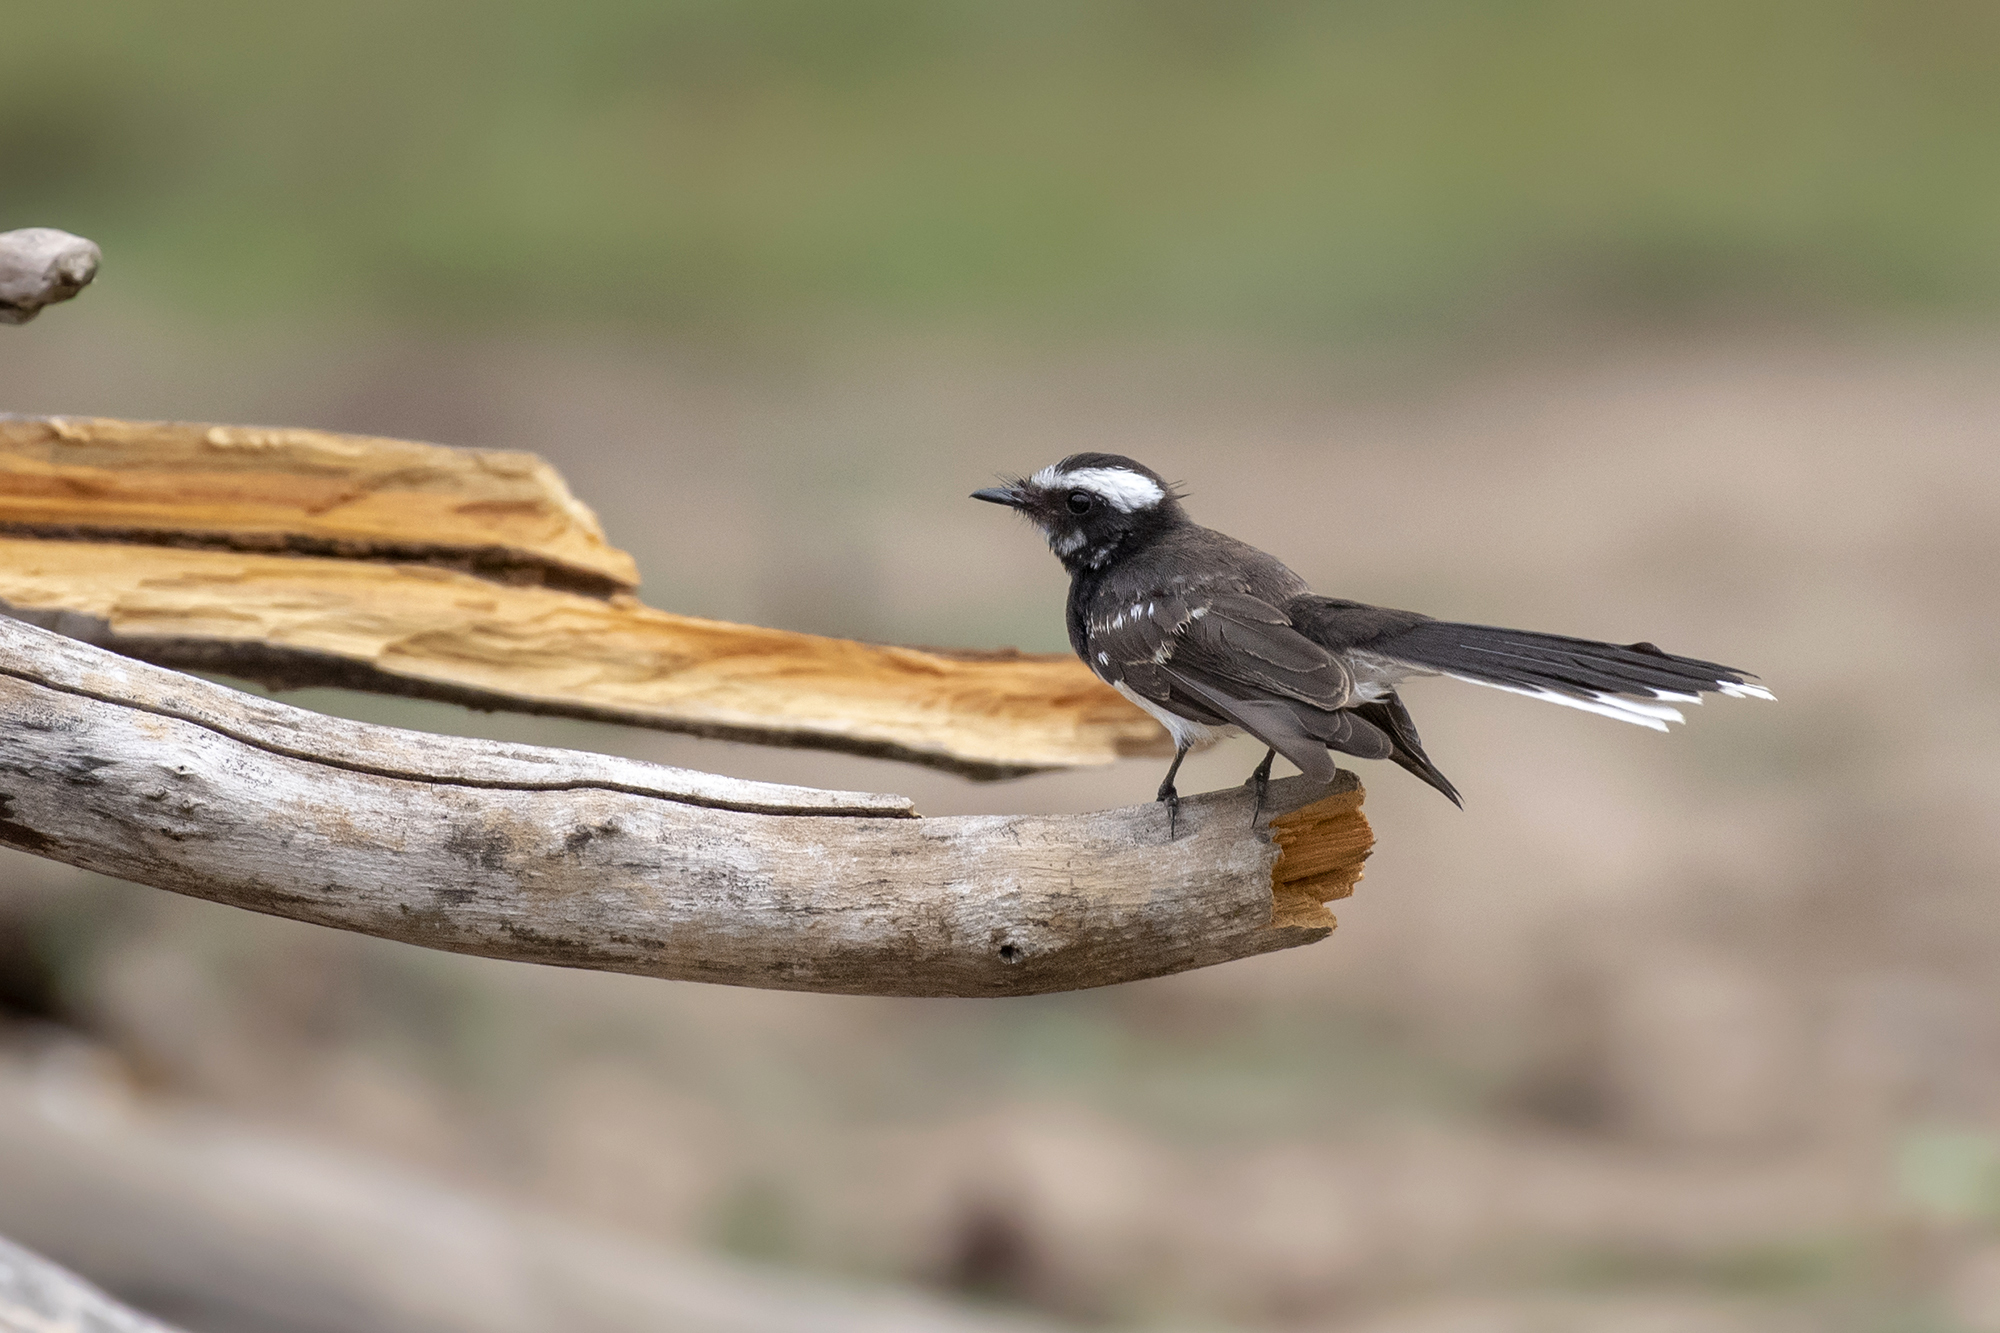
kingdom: Animalia
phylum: Chordata
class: Aves
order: Passeriformes
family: Rhipiduridae
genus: Rhipidura
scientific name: Rhipidura aureola
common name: White-browed fantail
